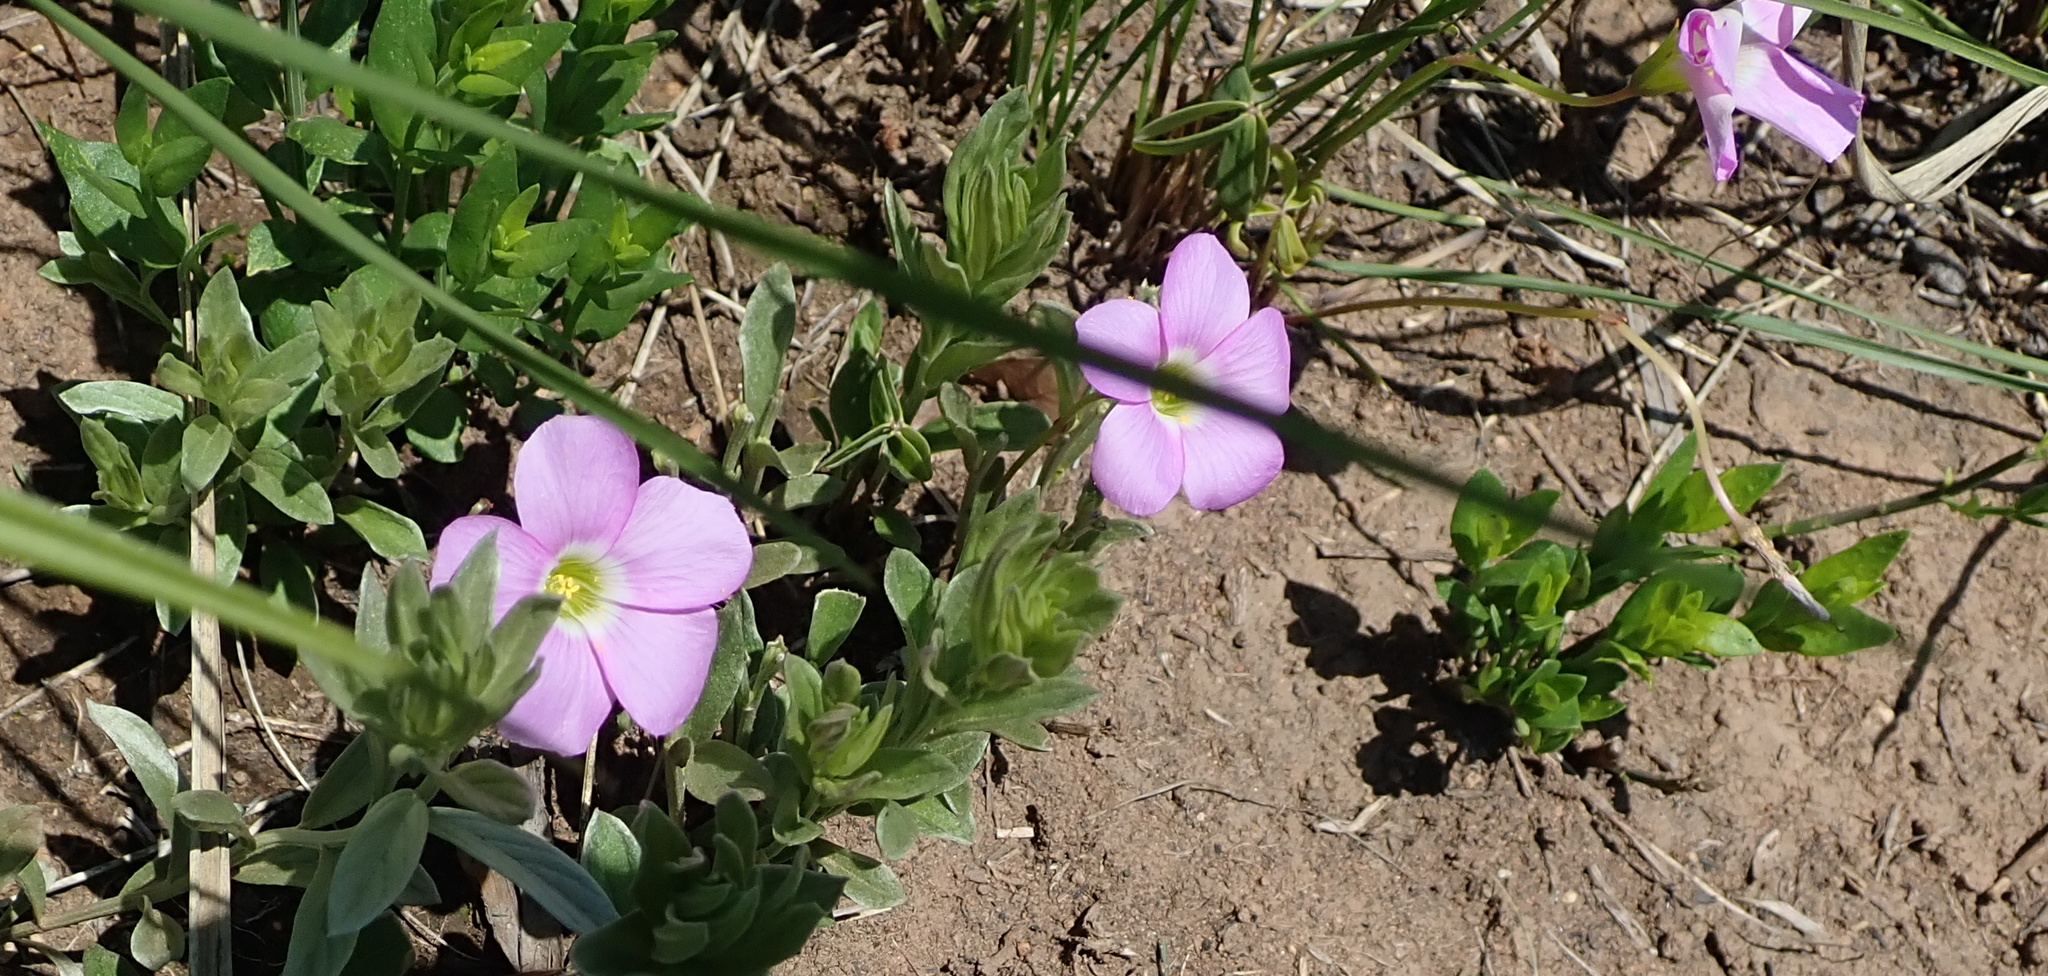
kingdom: Plantae
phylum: Tracheophyta
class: Magnoliopsida
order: Oxalidales
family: Oxalidaceae
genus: Oxalis
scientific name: Oxalis smithiana
